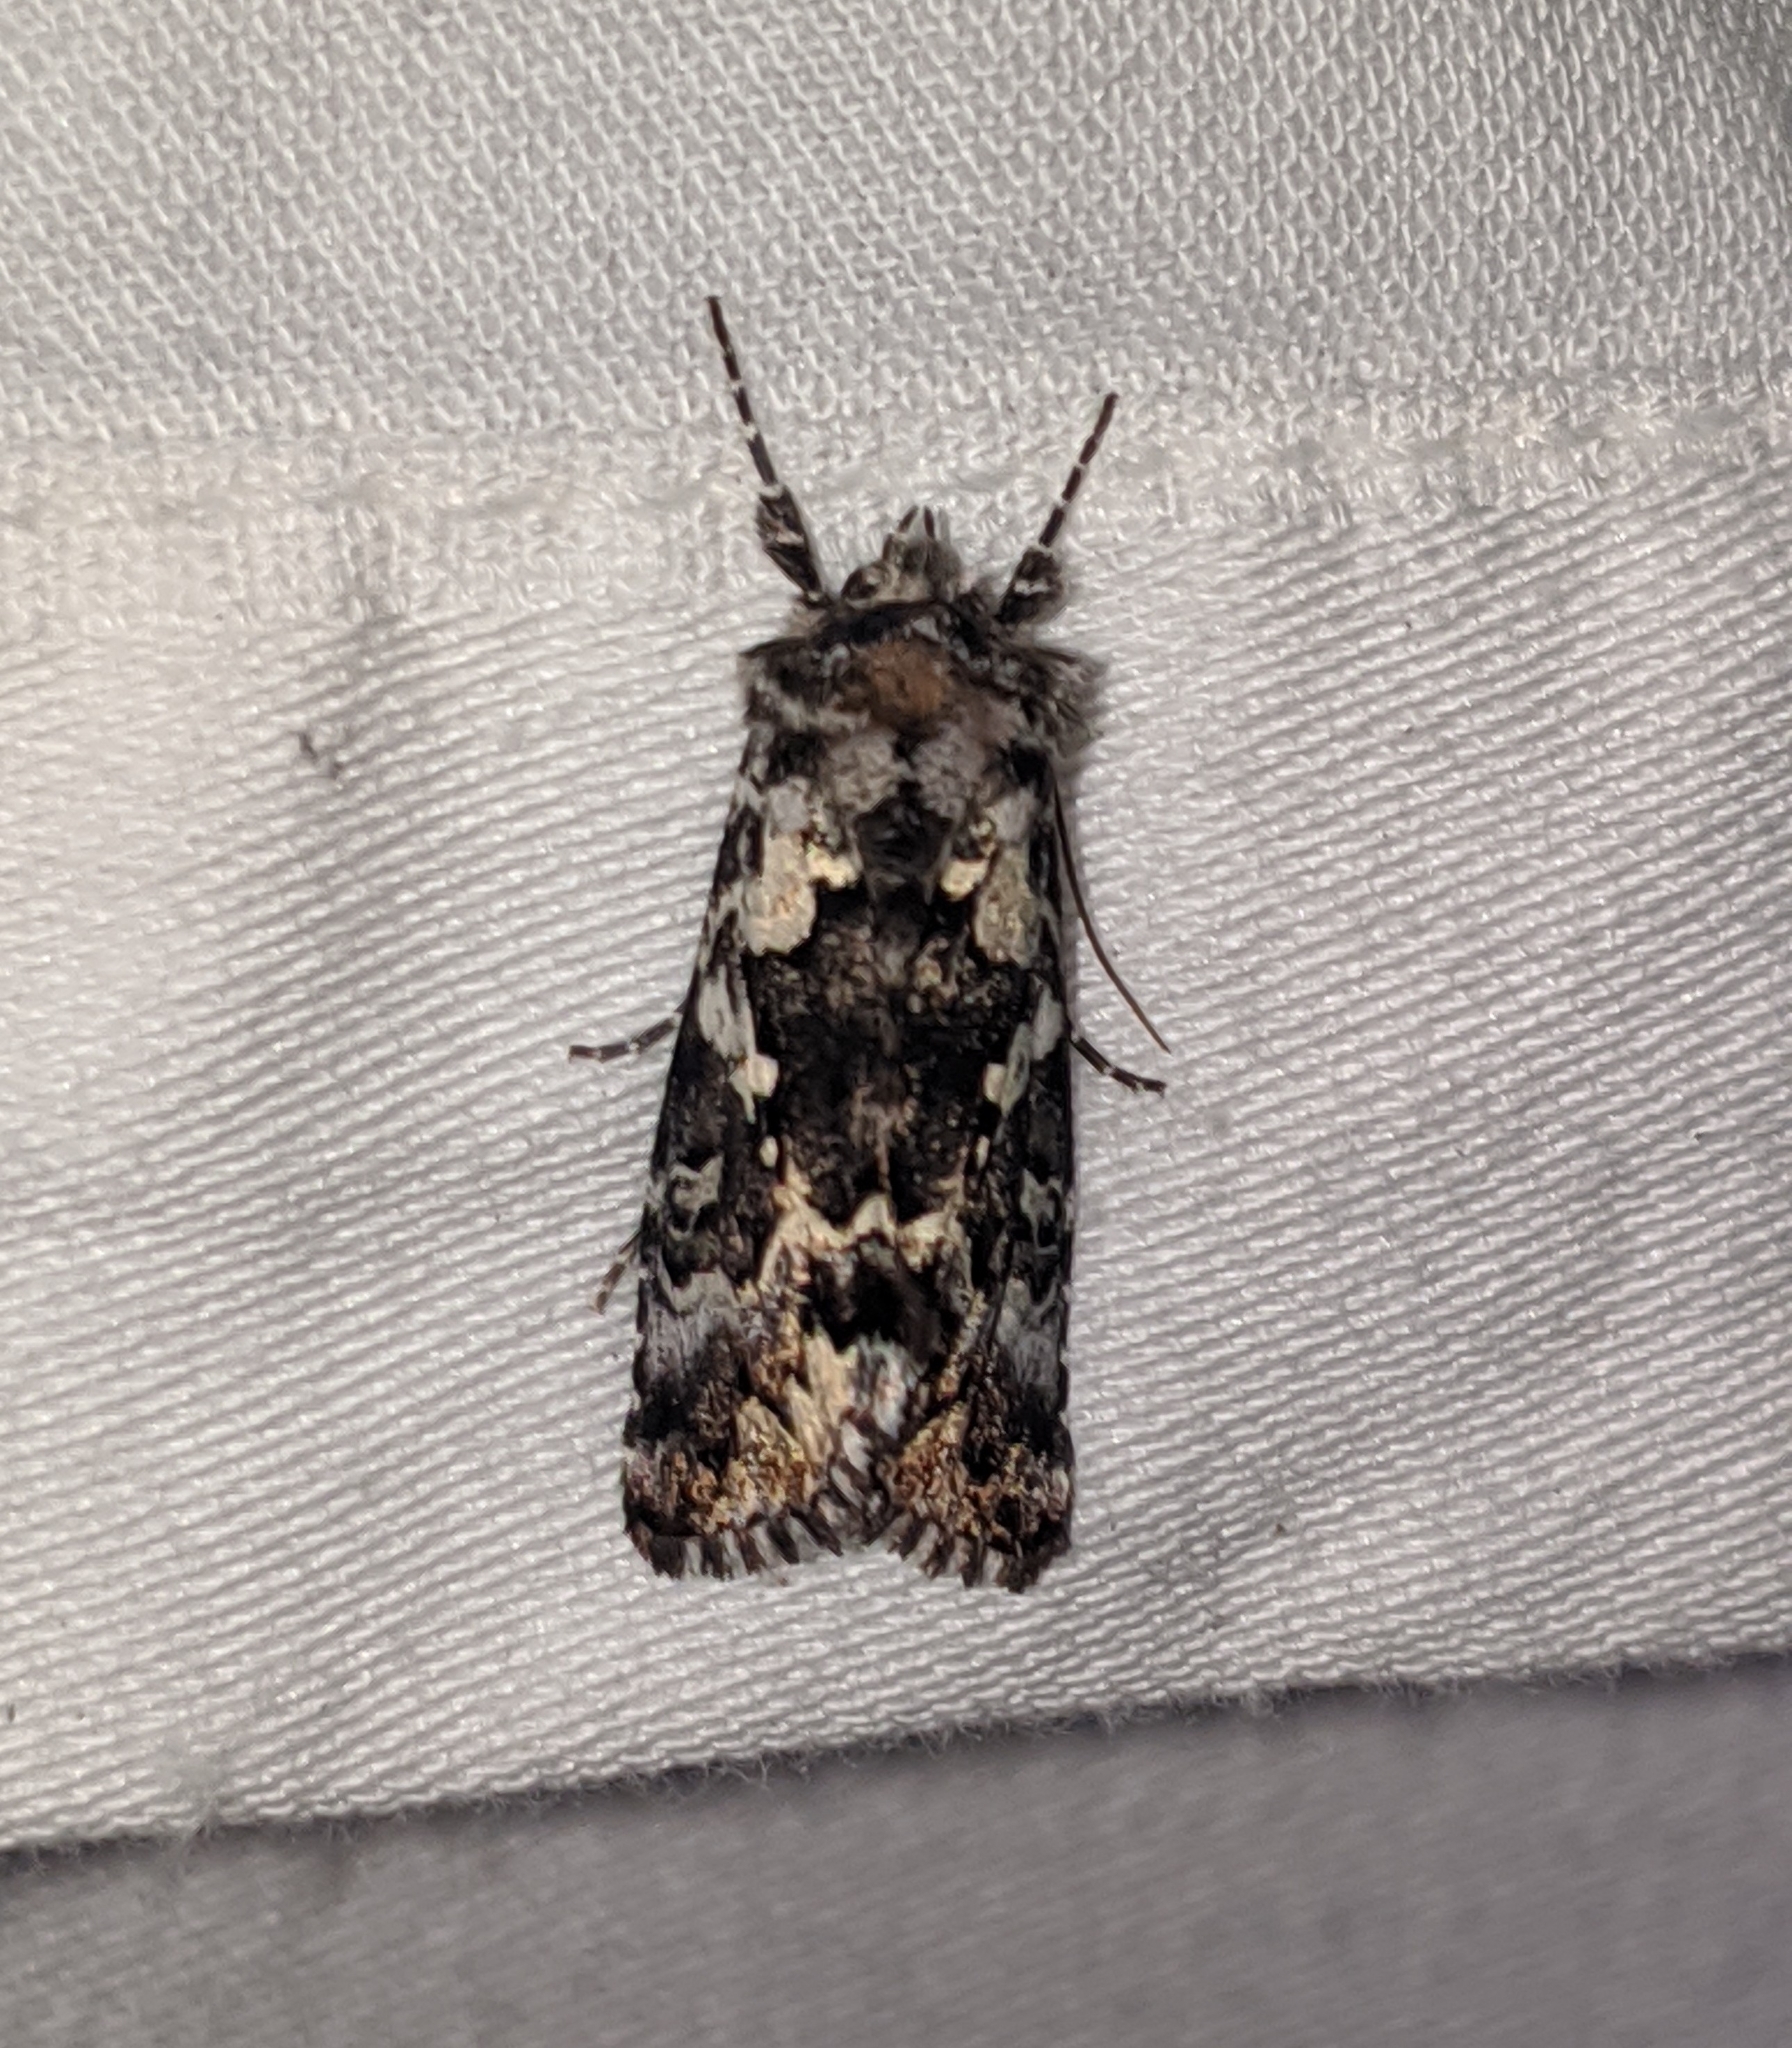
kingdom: Animalia
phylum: Arthropoda
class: Insecta
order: Lepidoptera
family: Noctuidae
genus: Syngrapha
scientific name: Syngrapha rectangula
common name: Angulated cutworm
